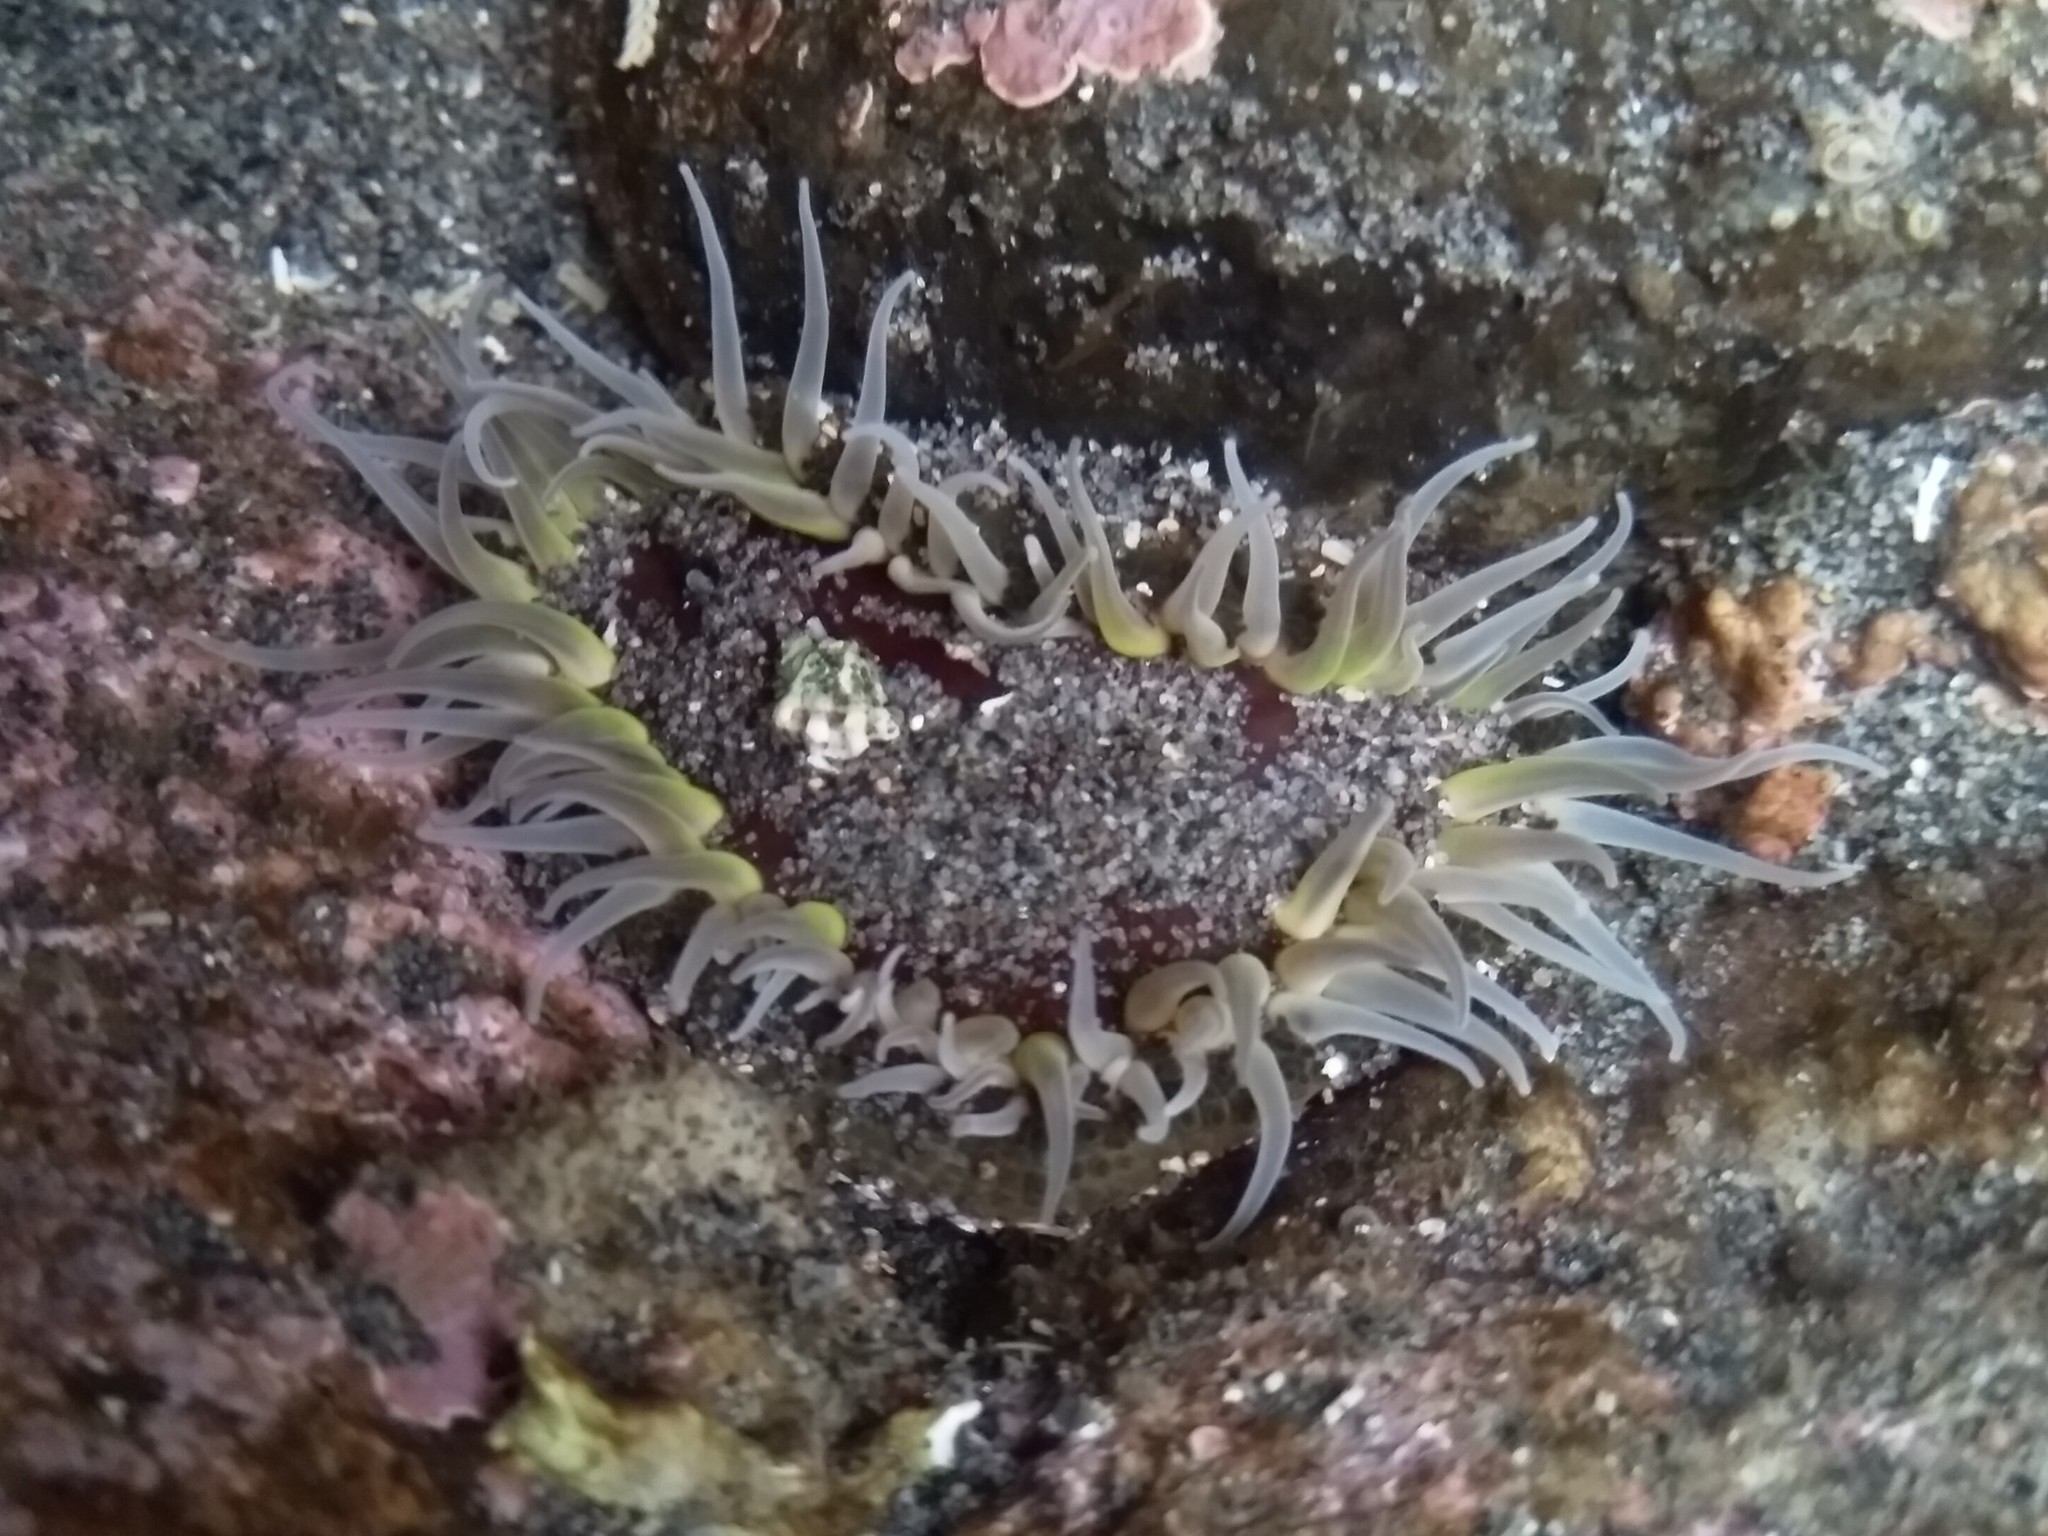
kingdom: Animalia
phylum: Cnidaria
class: Anthozoa
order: Actiniaria
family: Actiniidae
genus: Oulactis
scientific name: Oulactis magna
